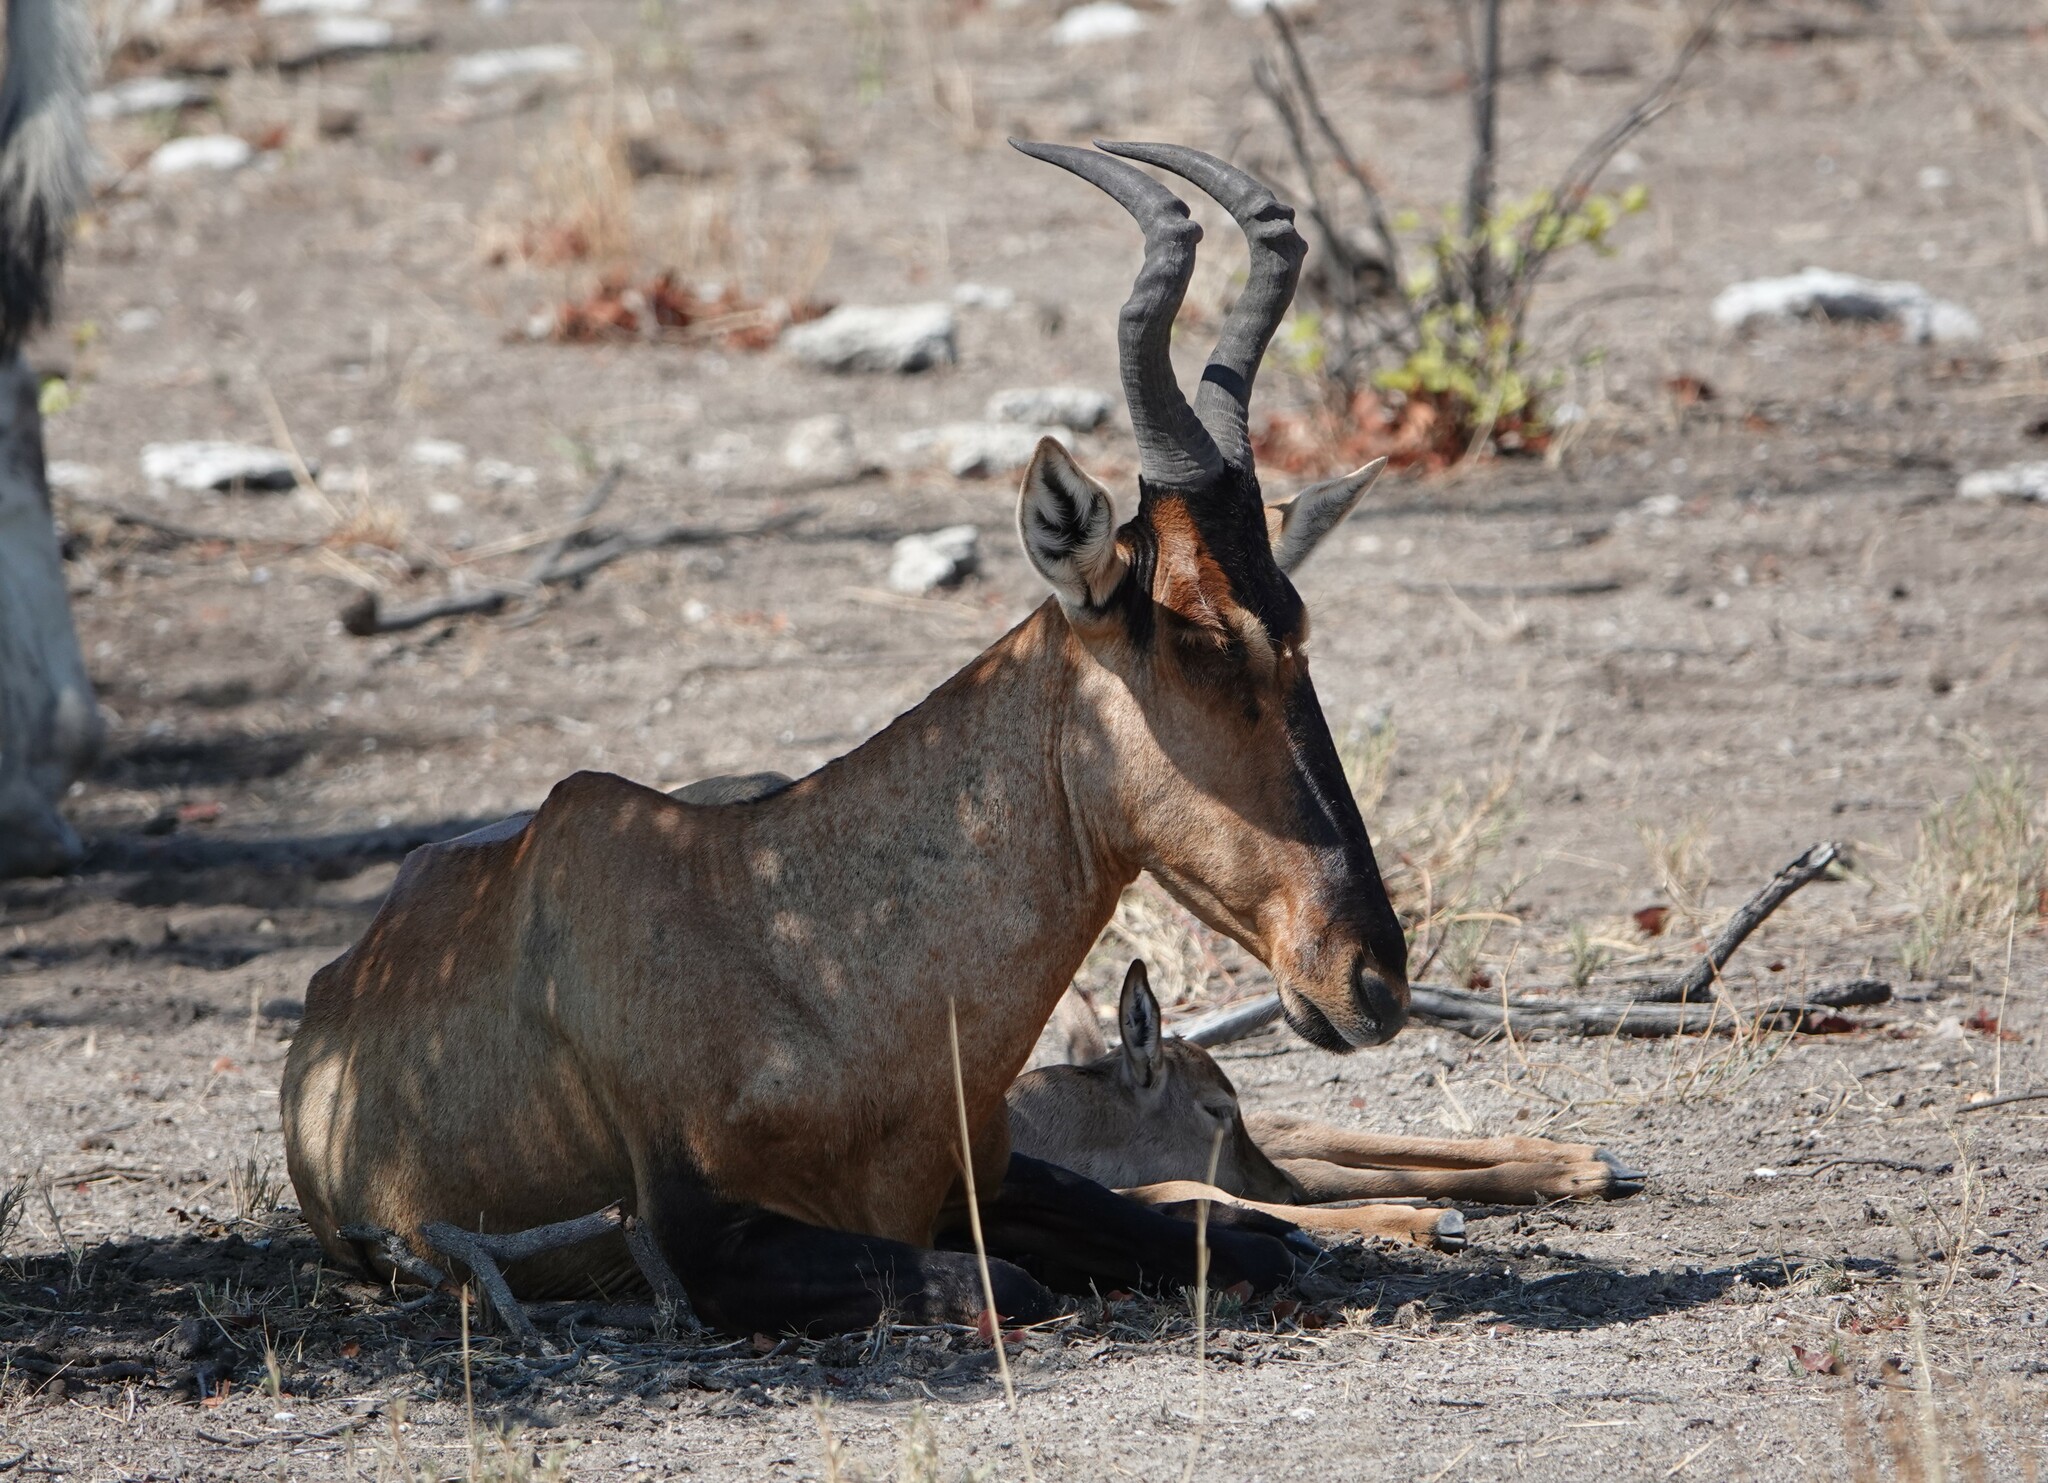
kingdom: Animalia
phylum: Chordata
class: Mammalia
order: Artiodactyla
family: Bovidae
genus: Alcelaphus
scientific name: Alcelaphus caama
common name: Red hartebeest
